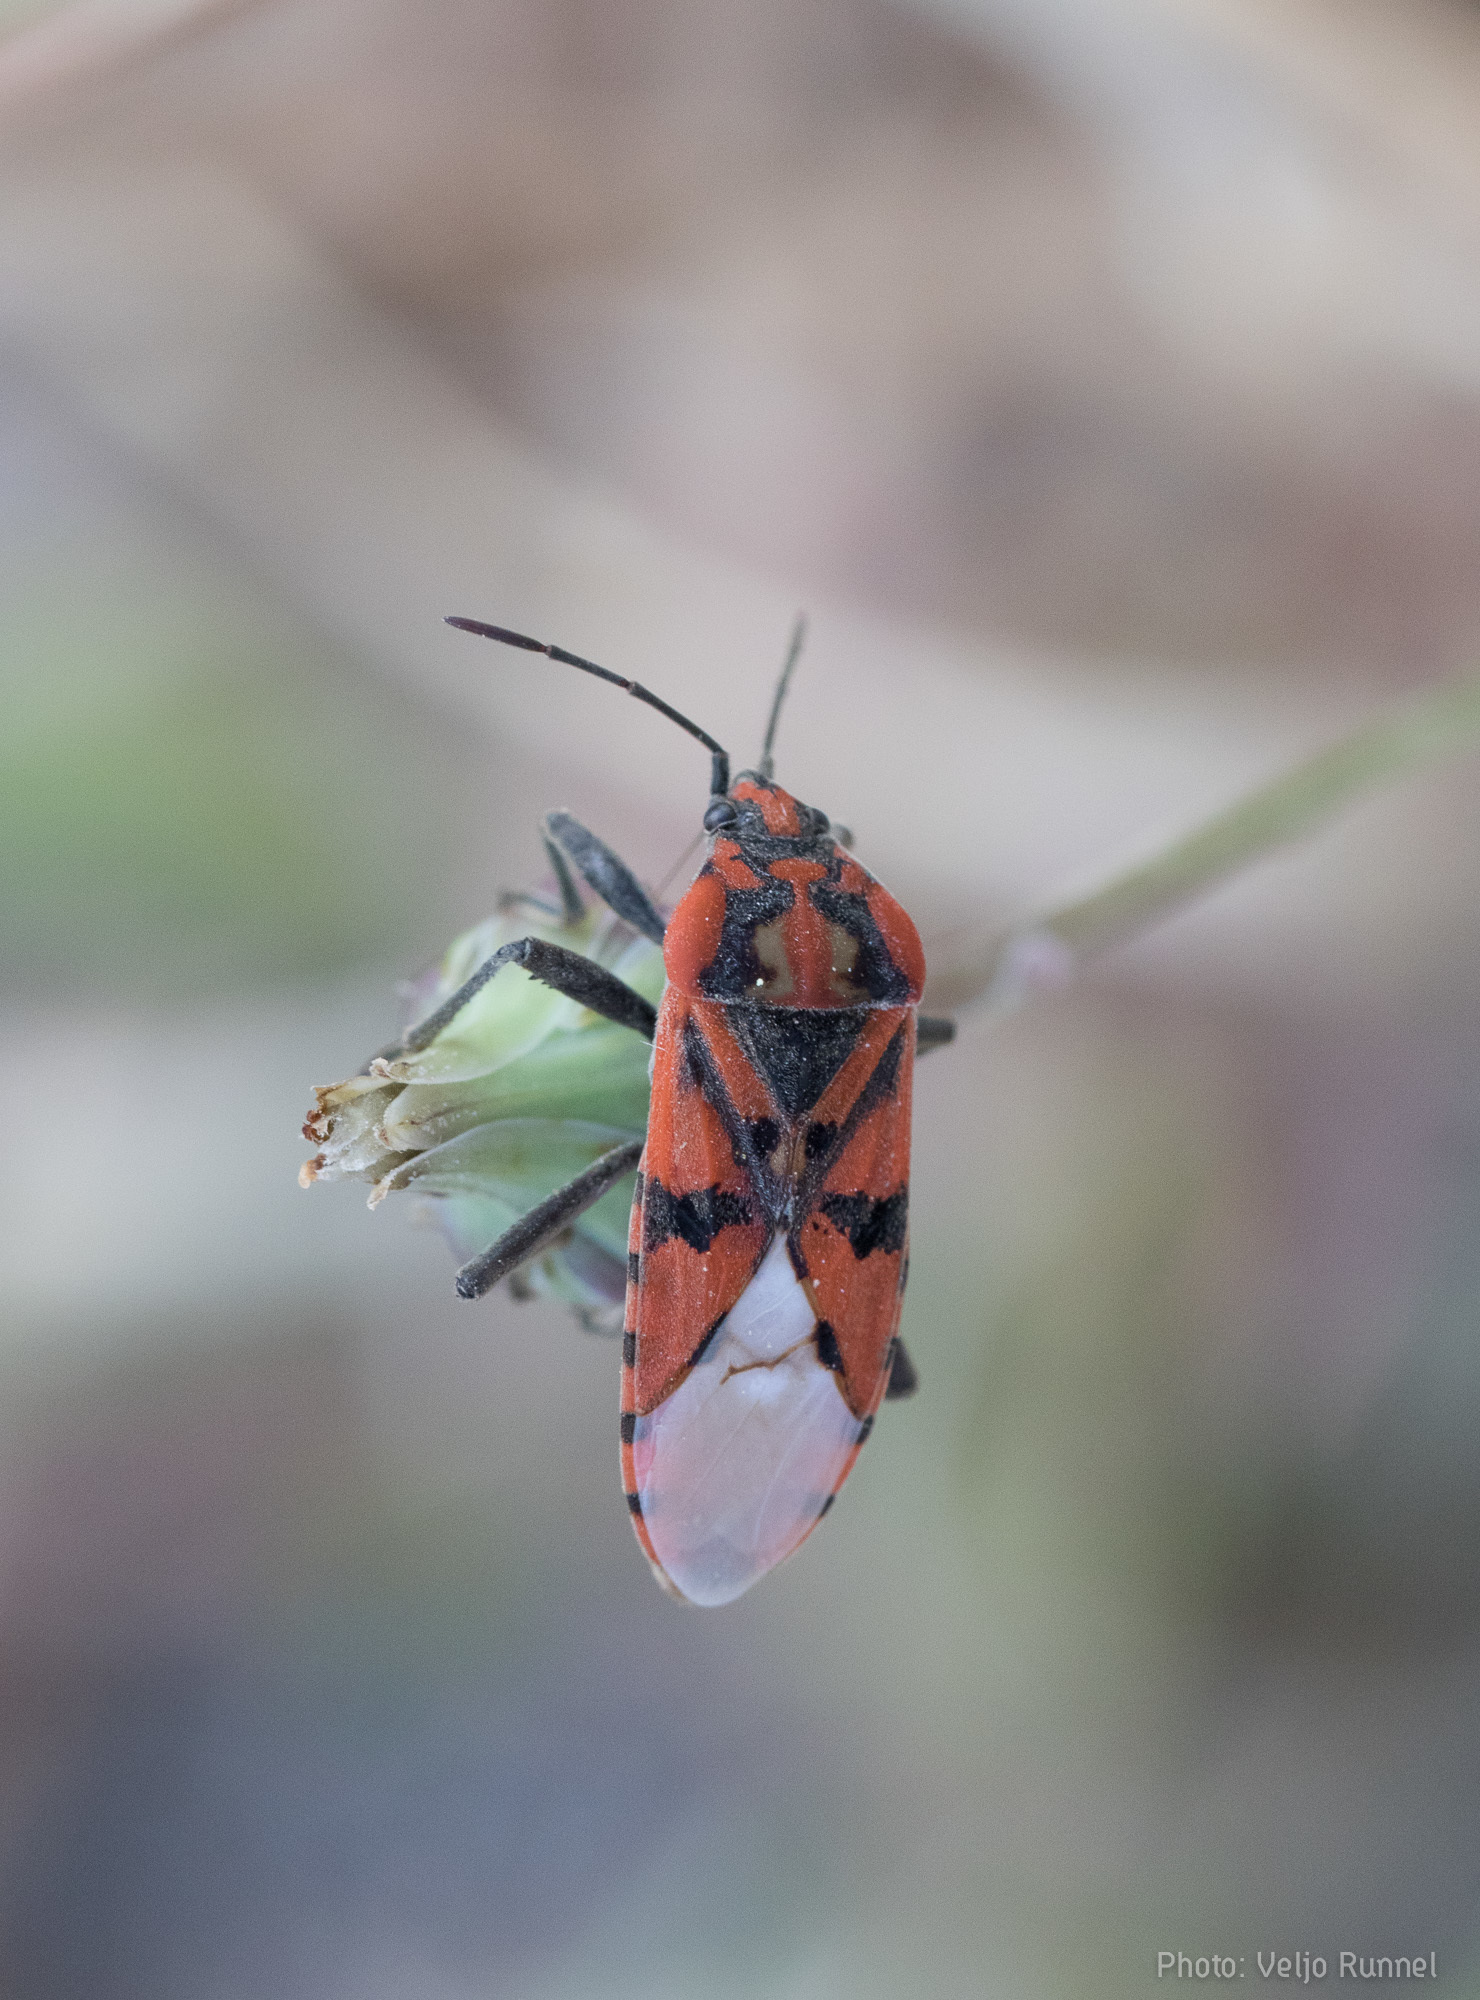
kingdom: Animalia
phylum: Arthropoda
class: Insecta
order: Hemiptera
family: Lygaeidae
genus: Spilostethus
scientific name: Spilostethus pandurus
